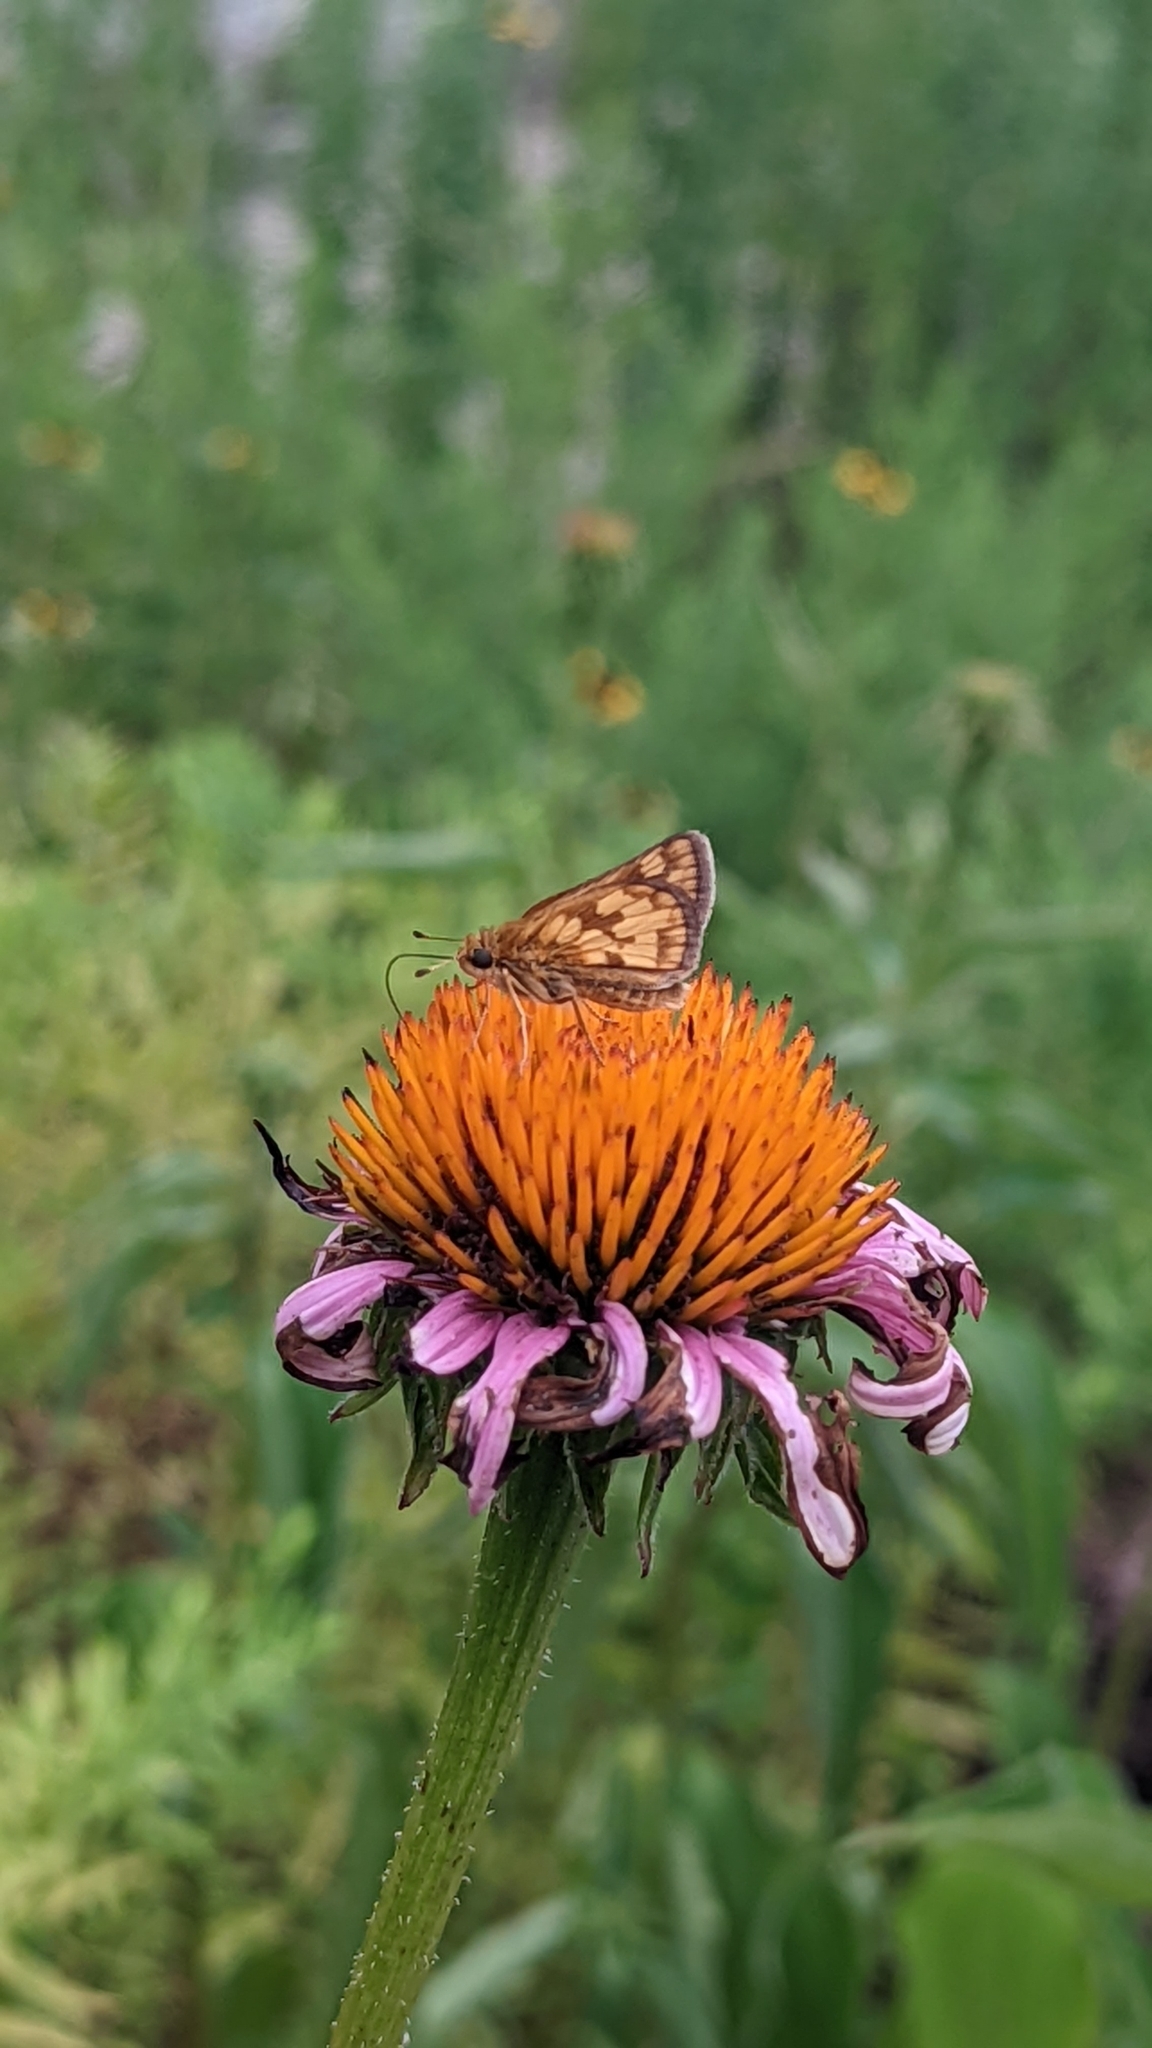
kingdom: Animalia
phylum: Arthropoda
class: Insecta
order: Lepidoptera
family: Hesperiidae
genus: Polites
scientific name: Polites coras
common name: Peck's skipper
